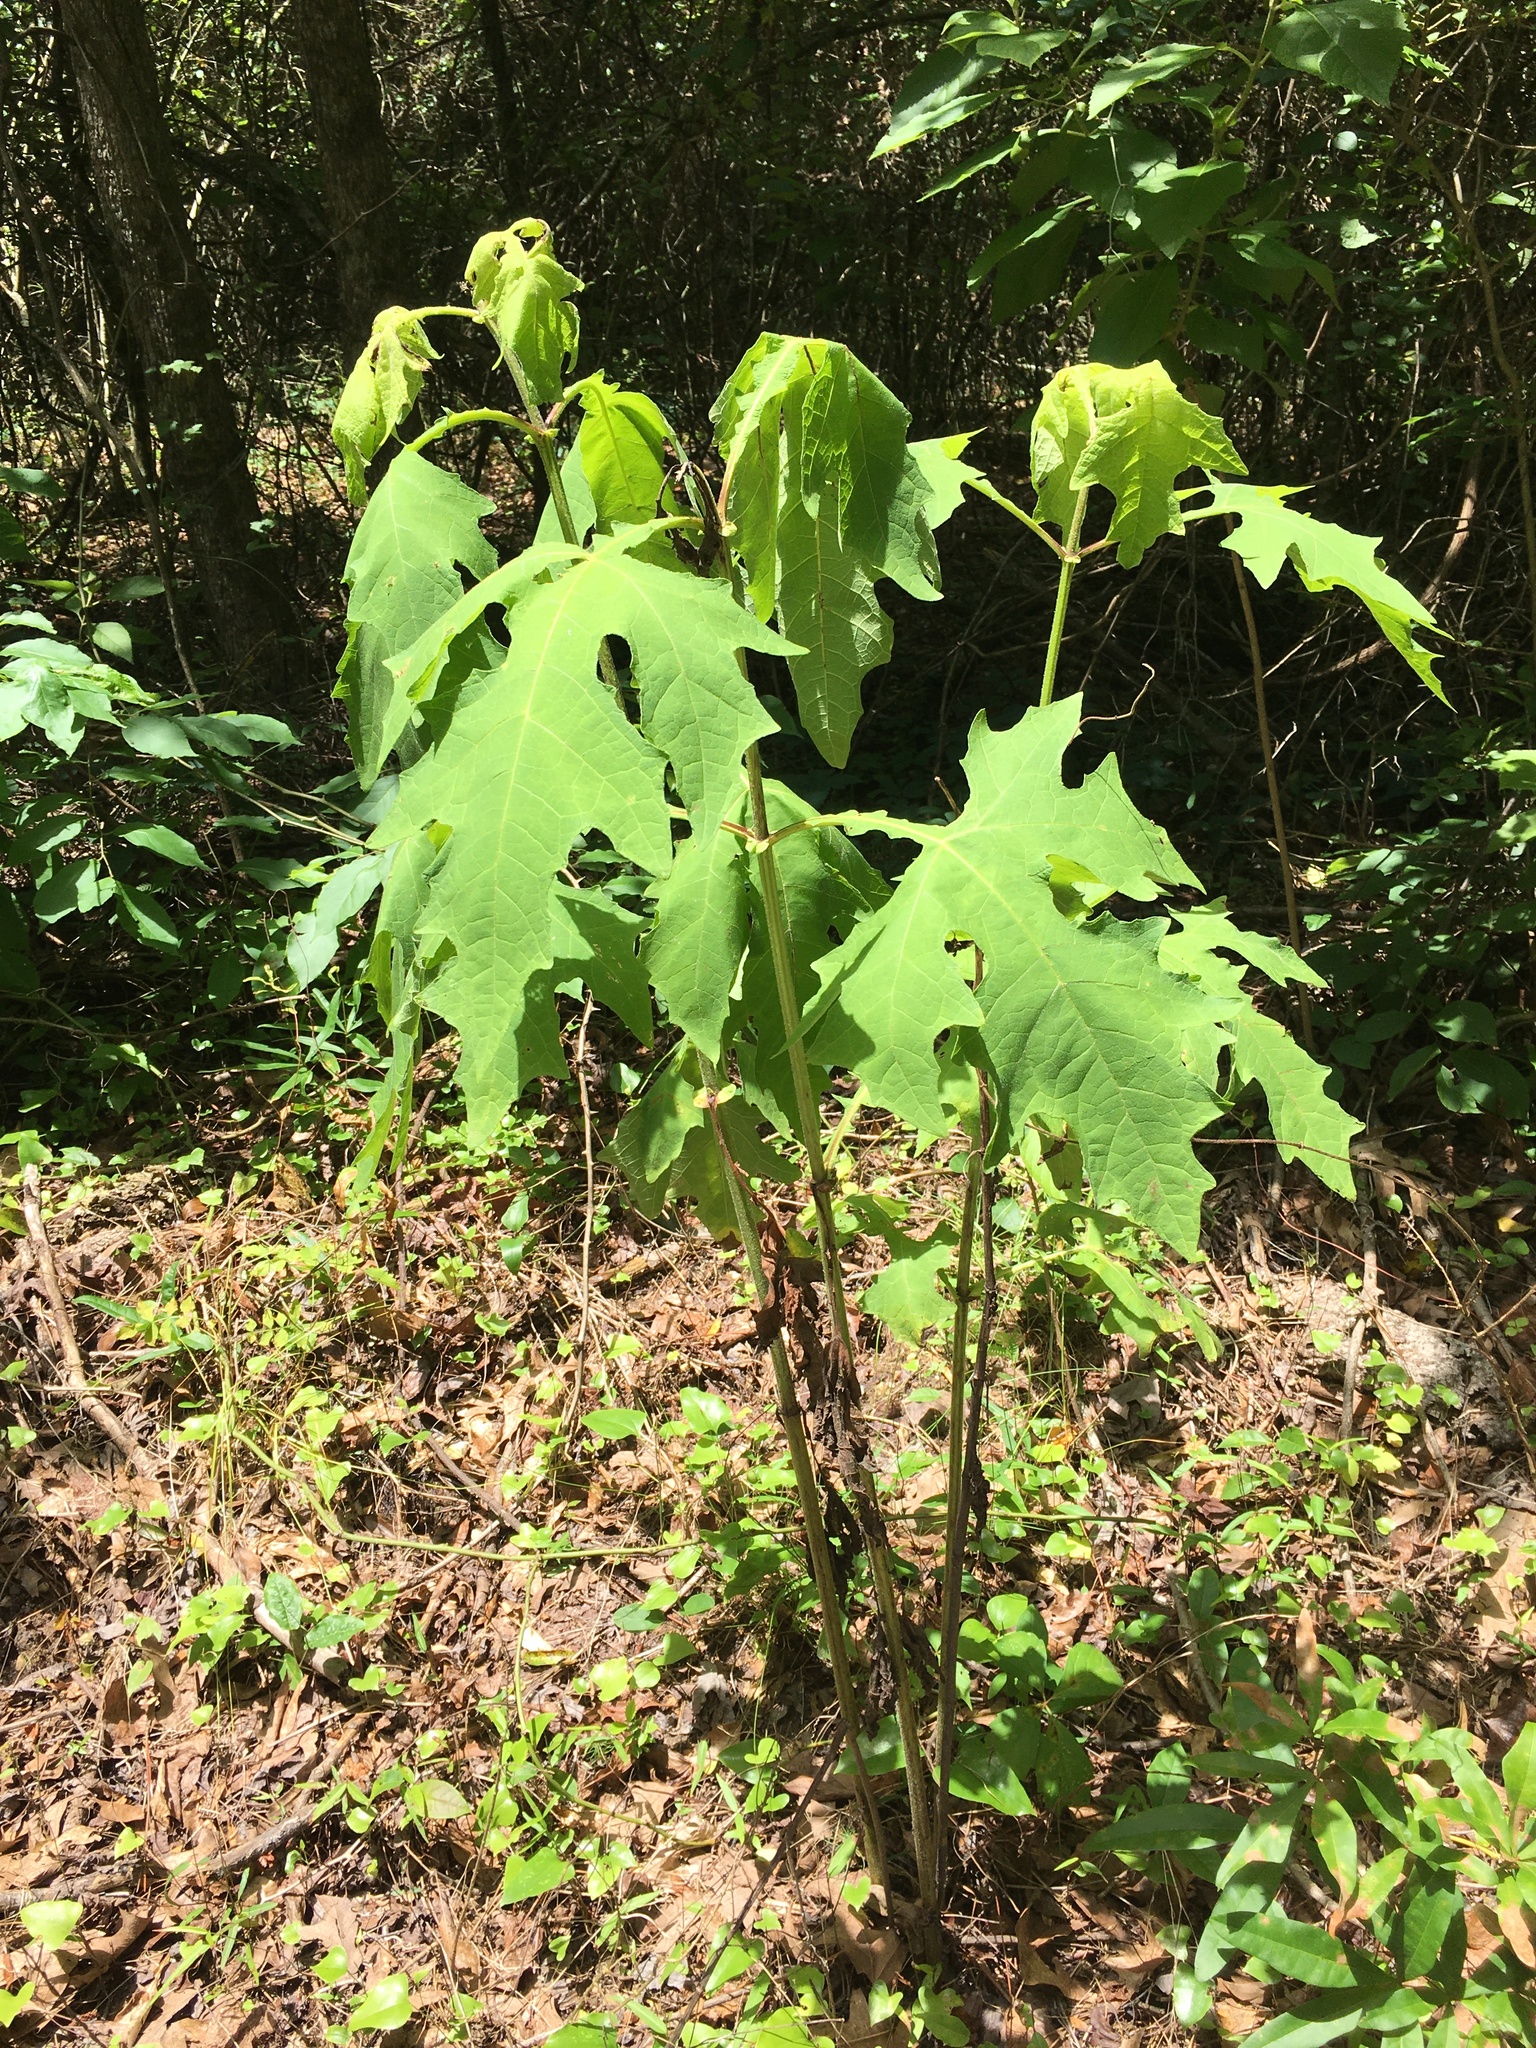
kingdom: Plantae
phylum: Tracheophyta
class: Magnoliopsida
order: Asterales
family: Asteraceae
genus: Smallanthus
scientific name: Smallanthus uvedalia
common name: Bear's-foot
